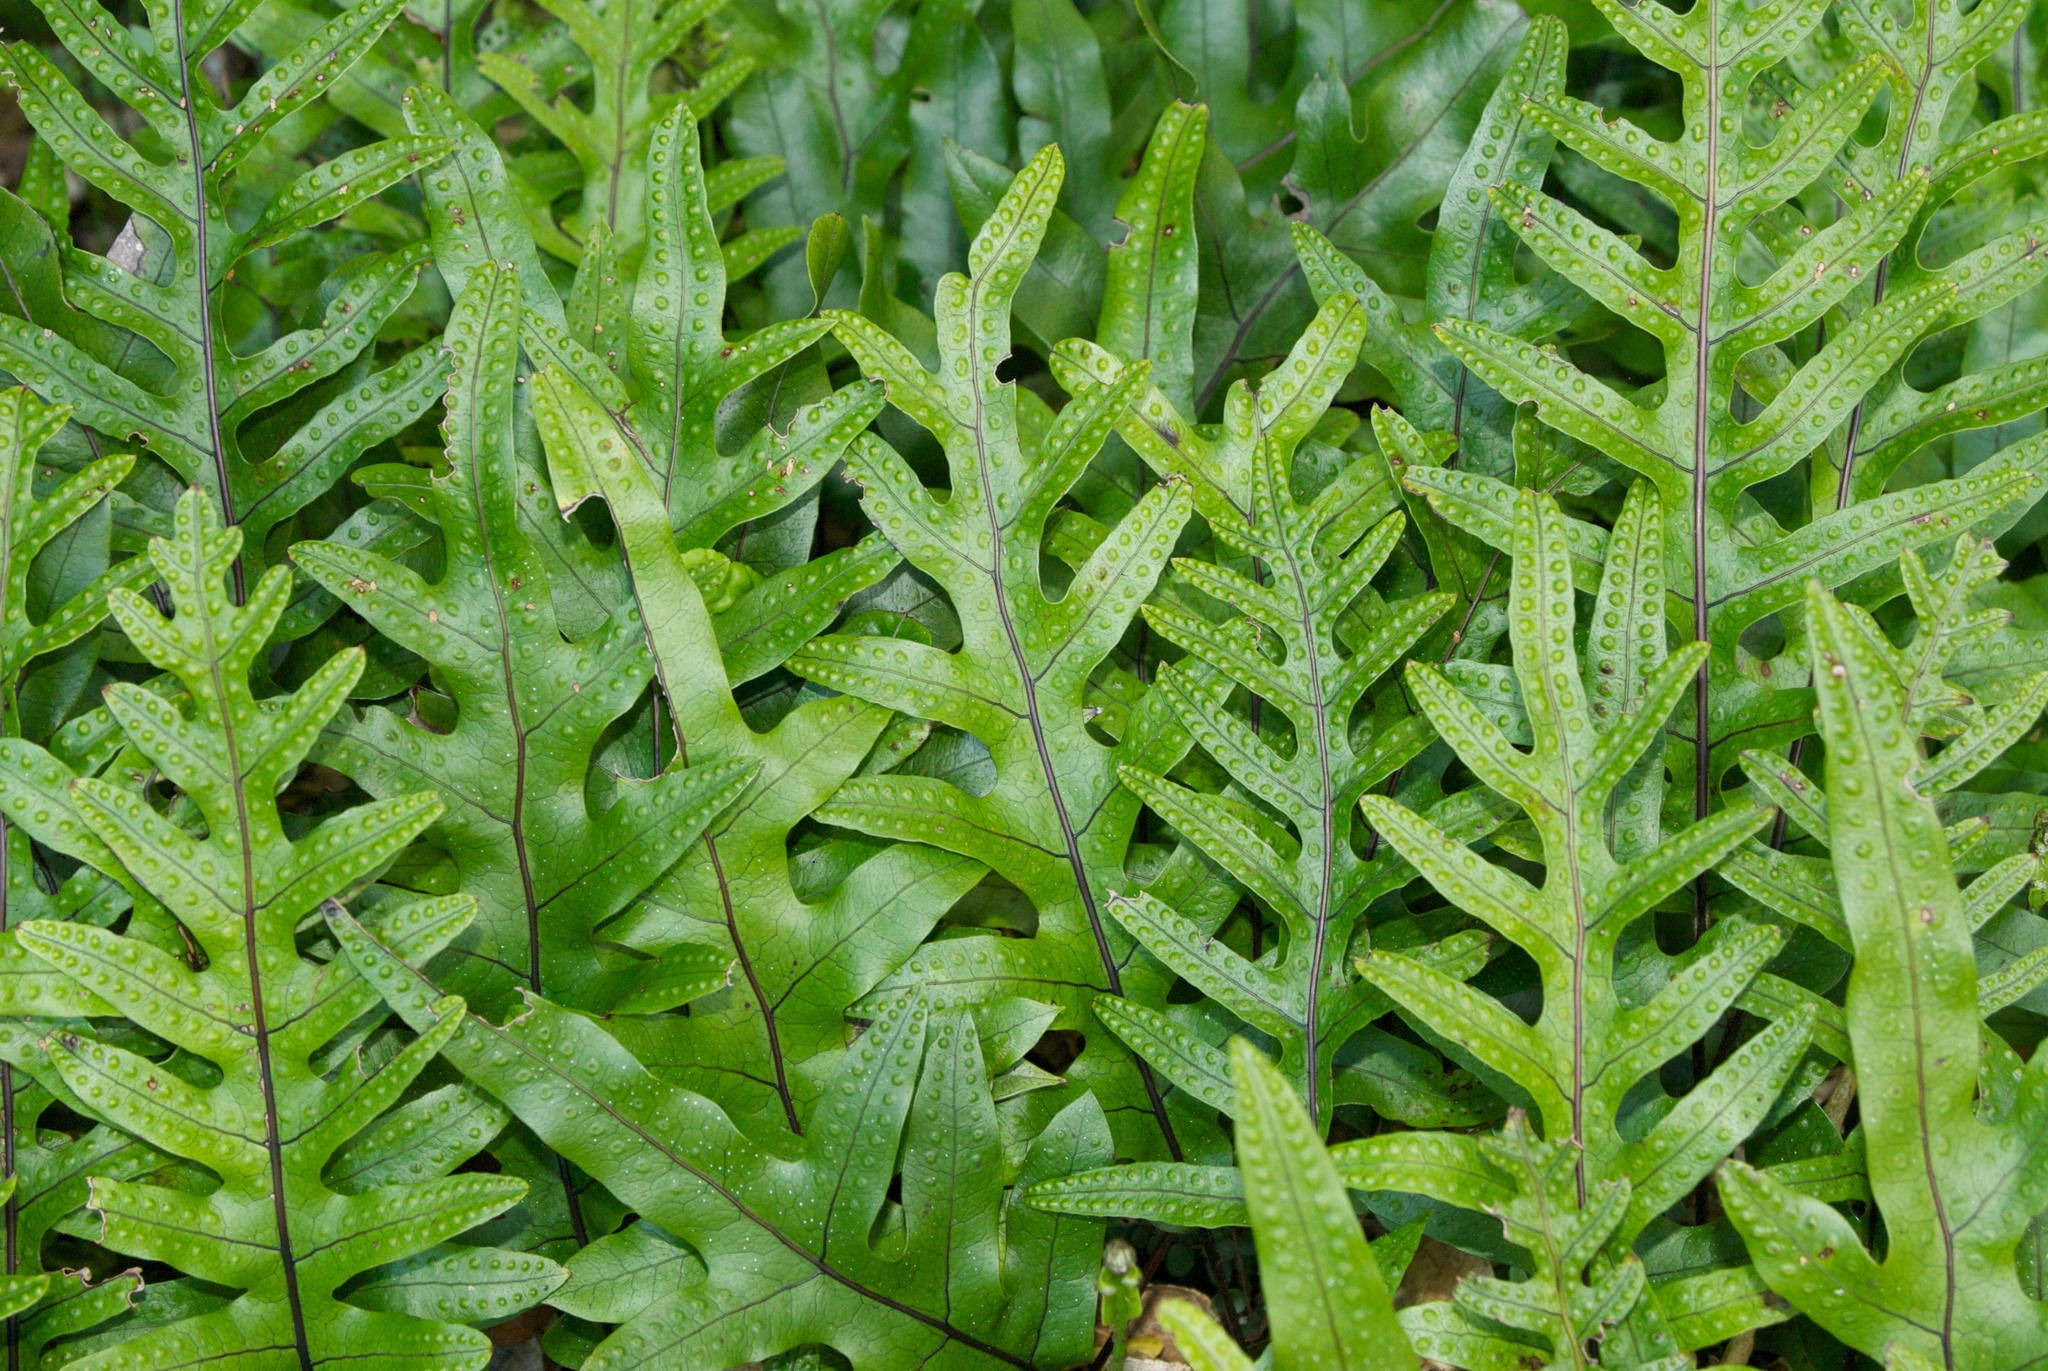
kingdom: Plantae
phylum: Tracheophyta
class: Polypodiopsida
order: Polypodiales
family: Polypodiaceae
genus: Lecanopteris
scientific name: Lecanopteris pustulata
